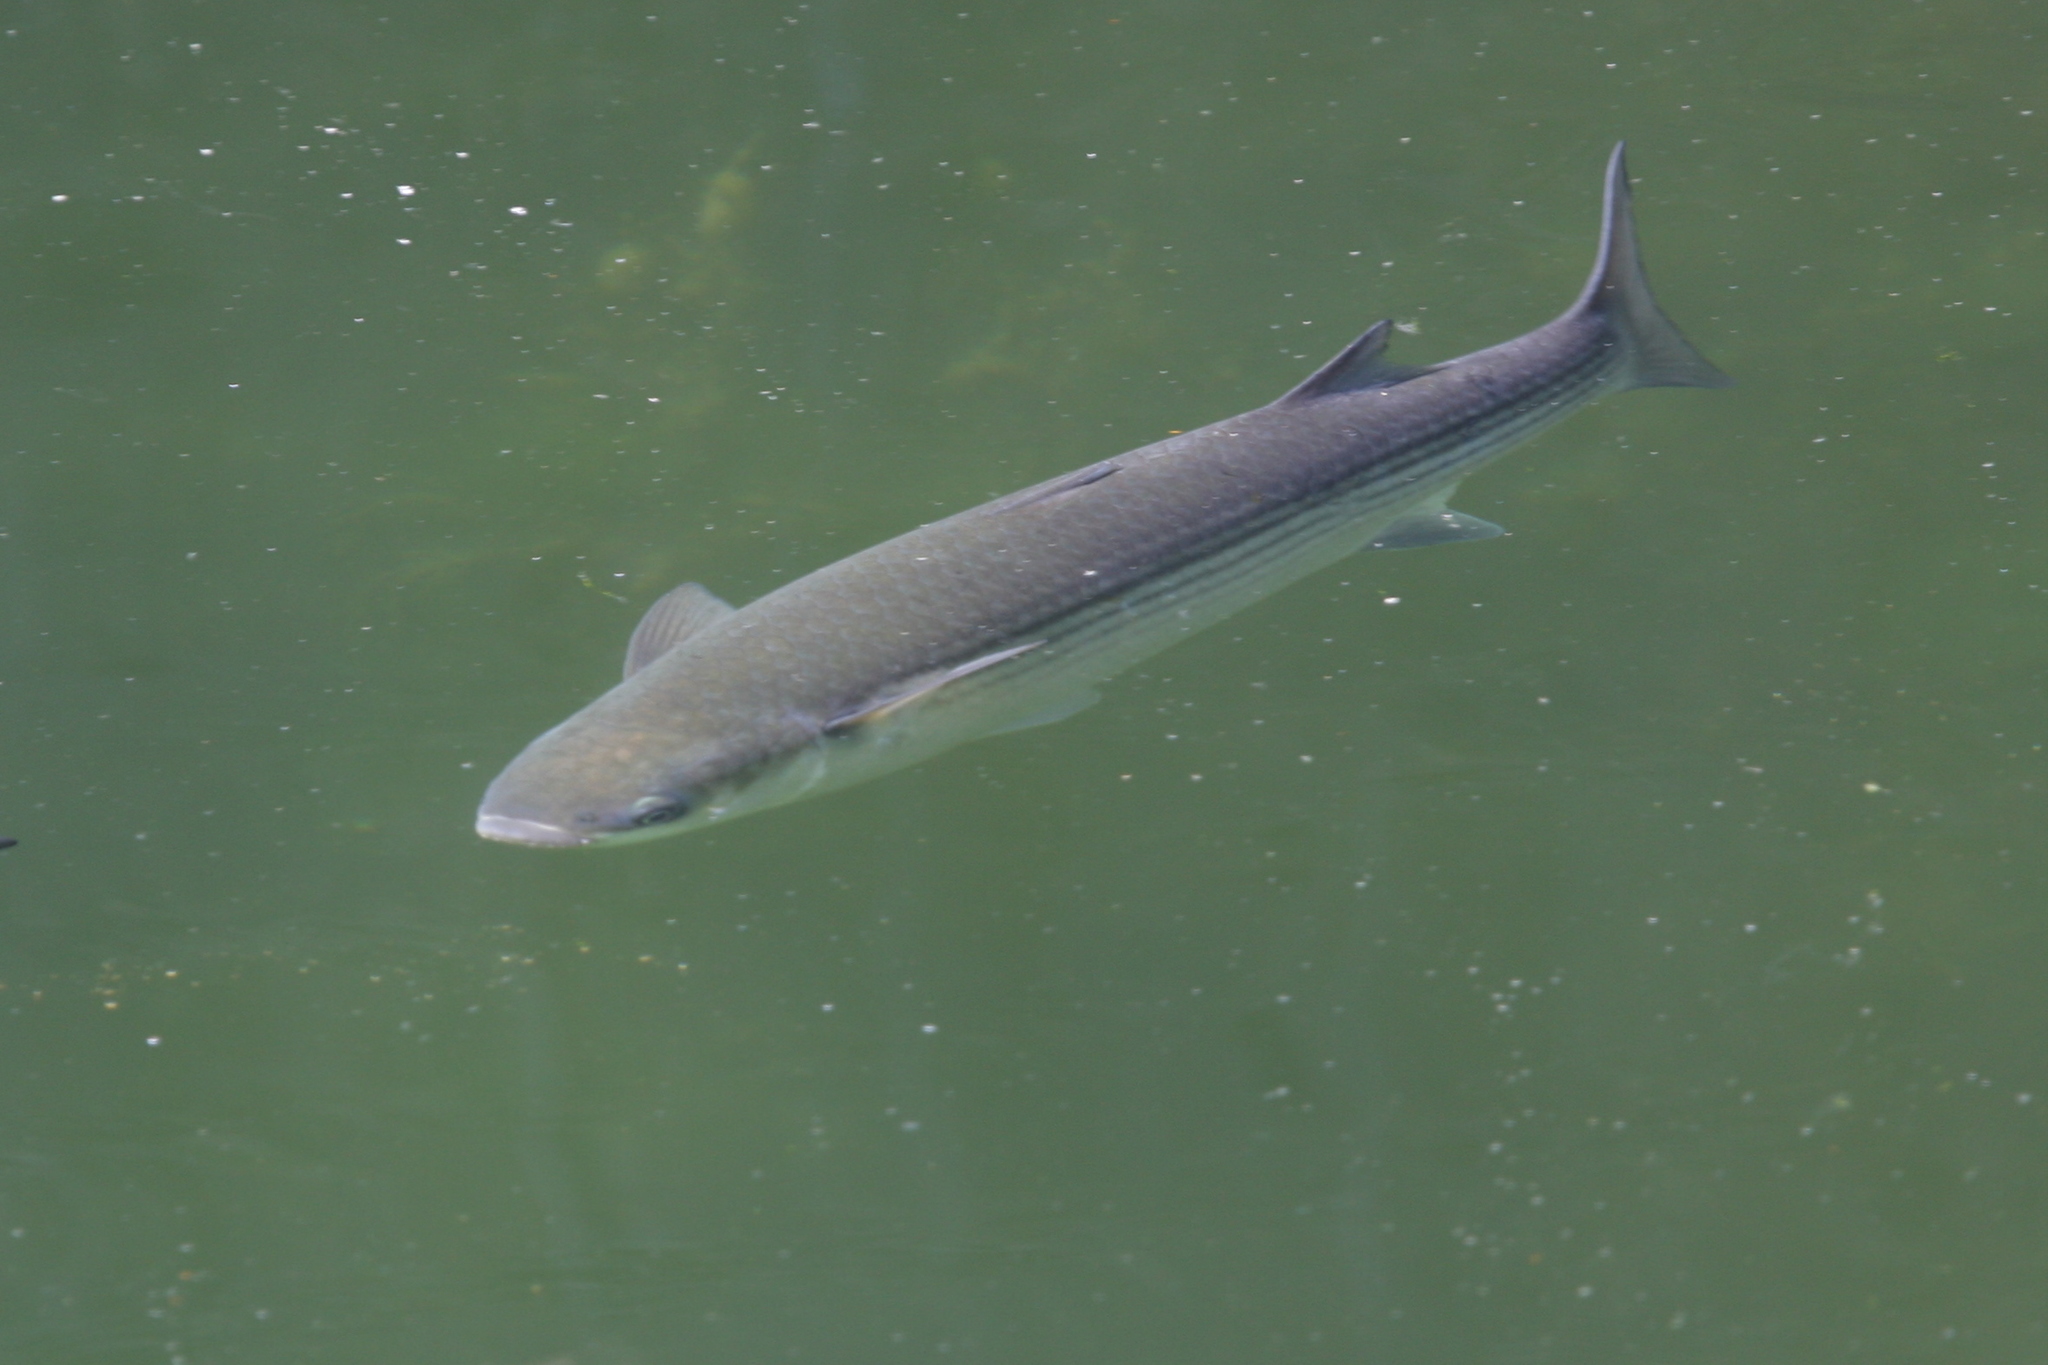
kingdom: Animalia
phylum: Chordata
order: Mugiliformes
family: Mugilidae
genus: Chelon
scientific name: Chelon labrosus
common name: Thick-lipped mullet
